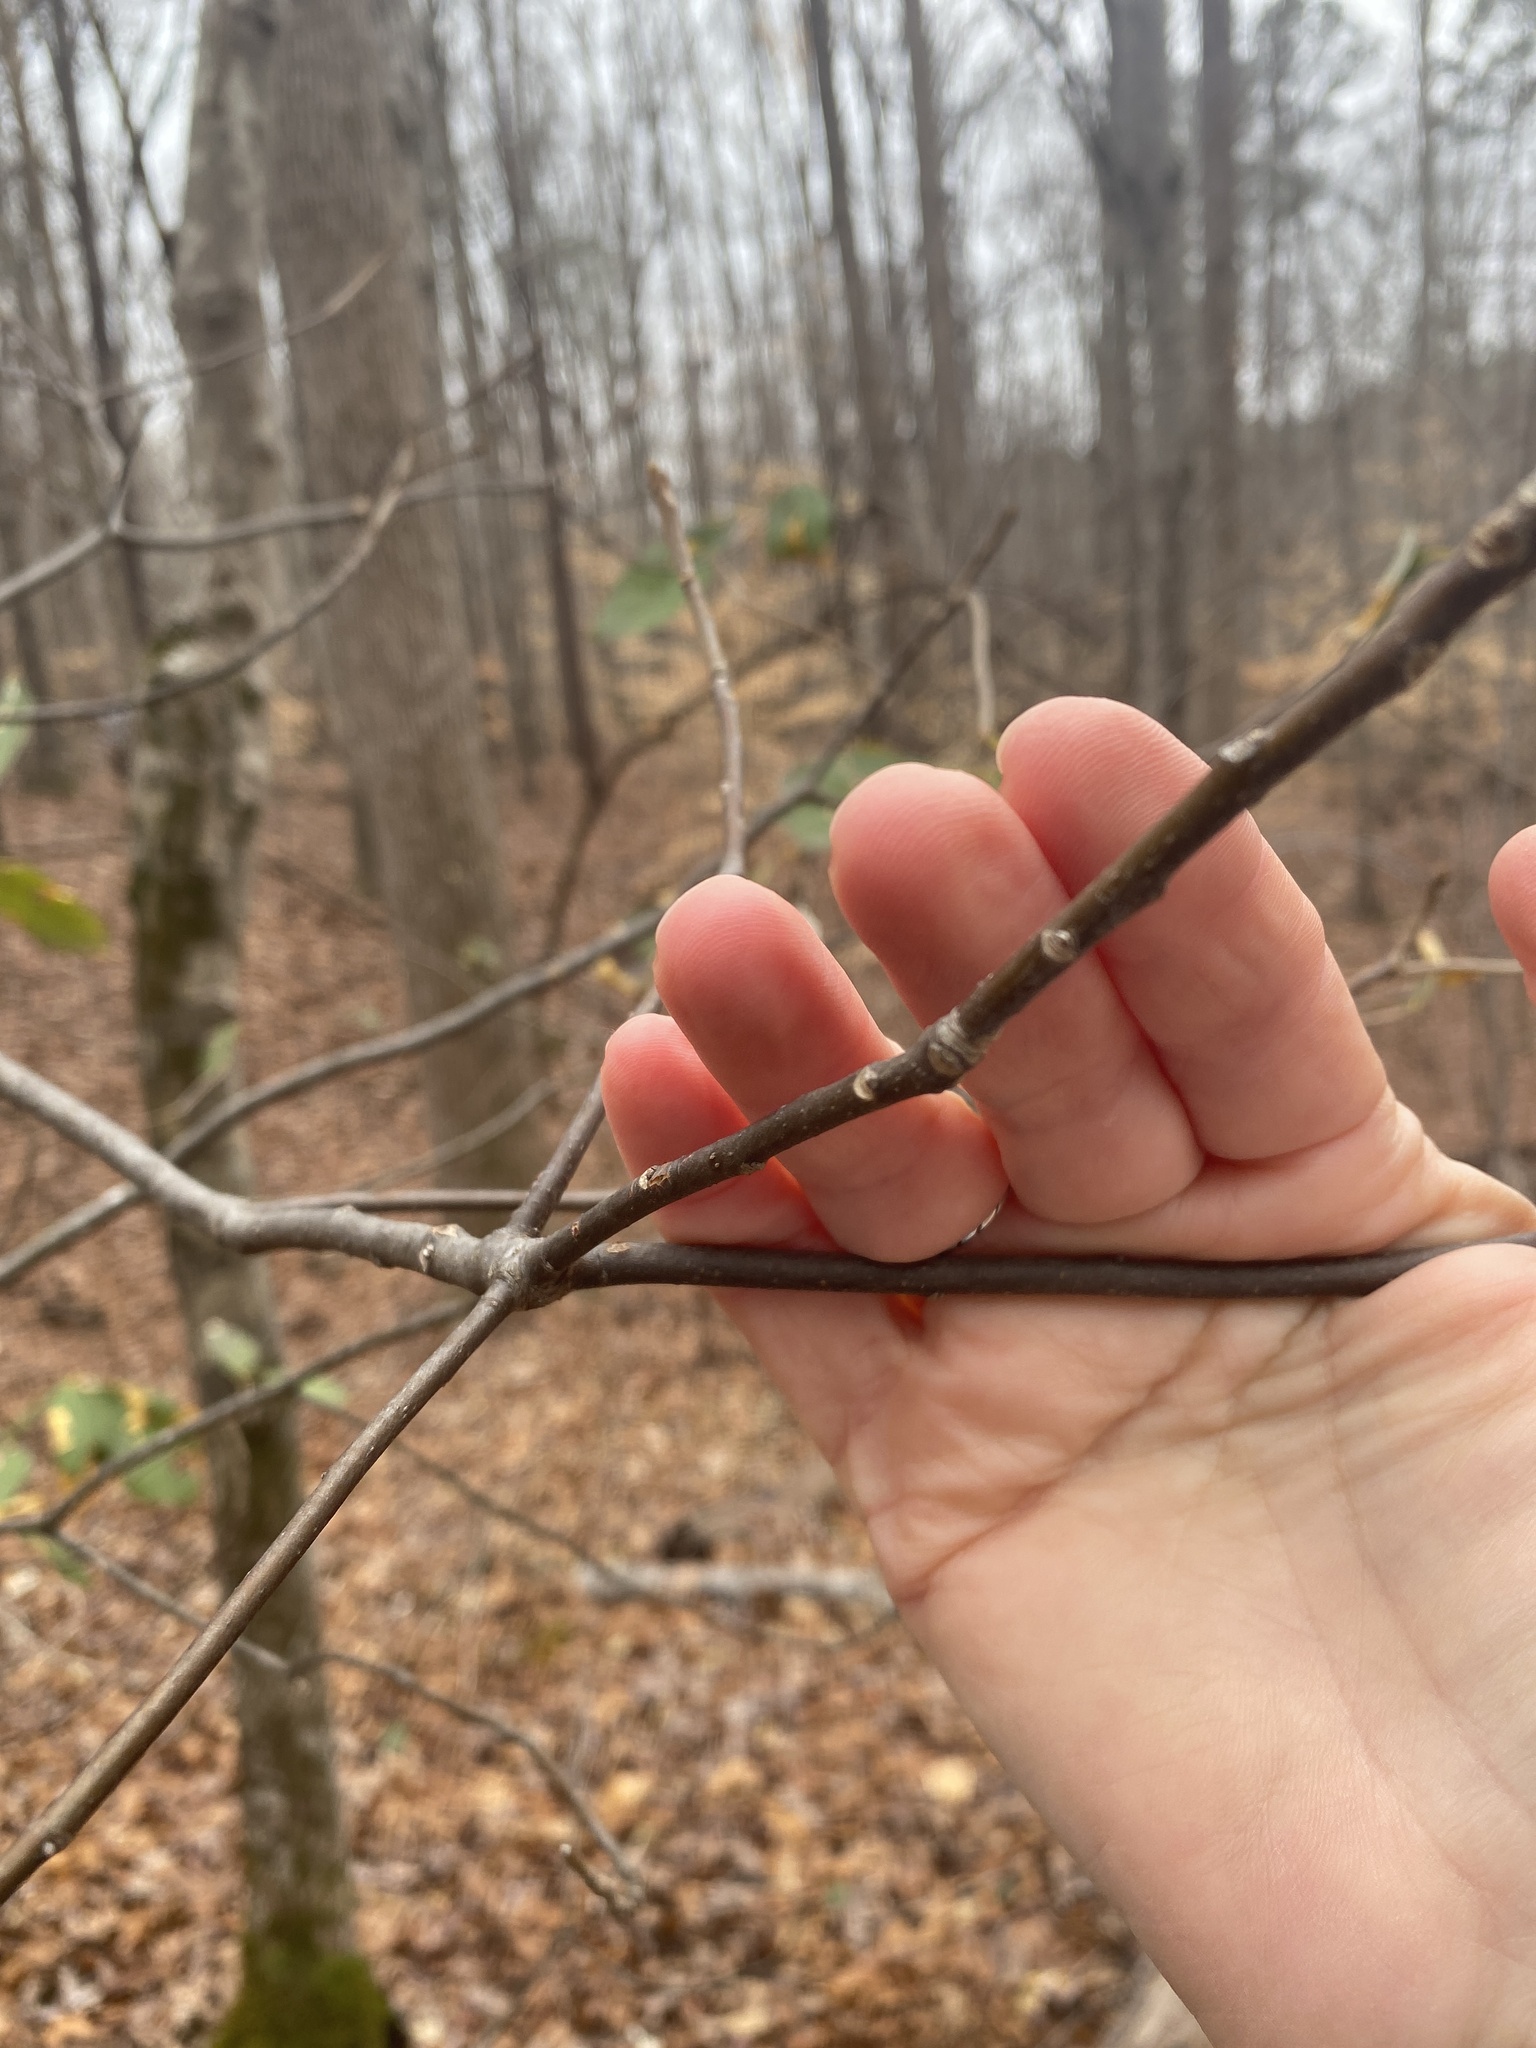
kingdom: Plantae
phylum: Tracheophyta
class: Magnoliopsida
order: Ericales
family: Symplocaceae
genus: Symplocos
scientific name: Symplocos tinctoria
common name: Horse-sugar
